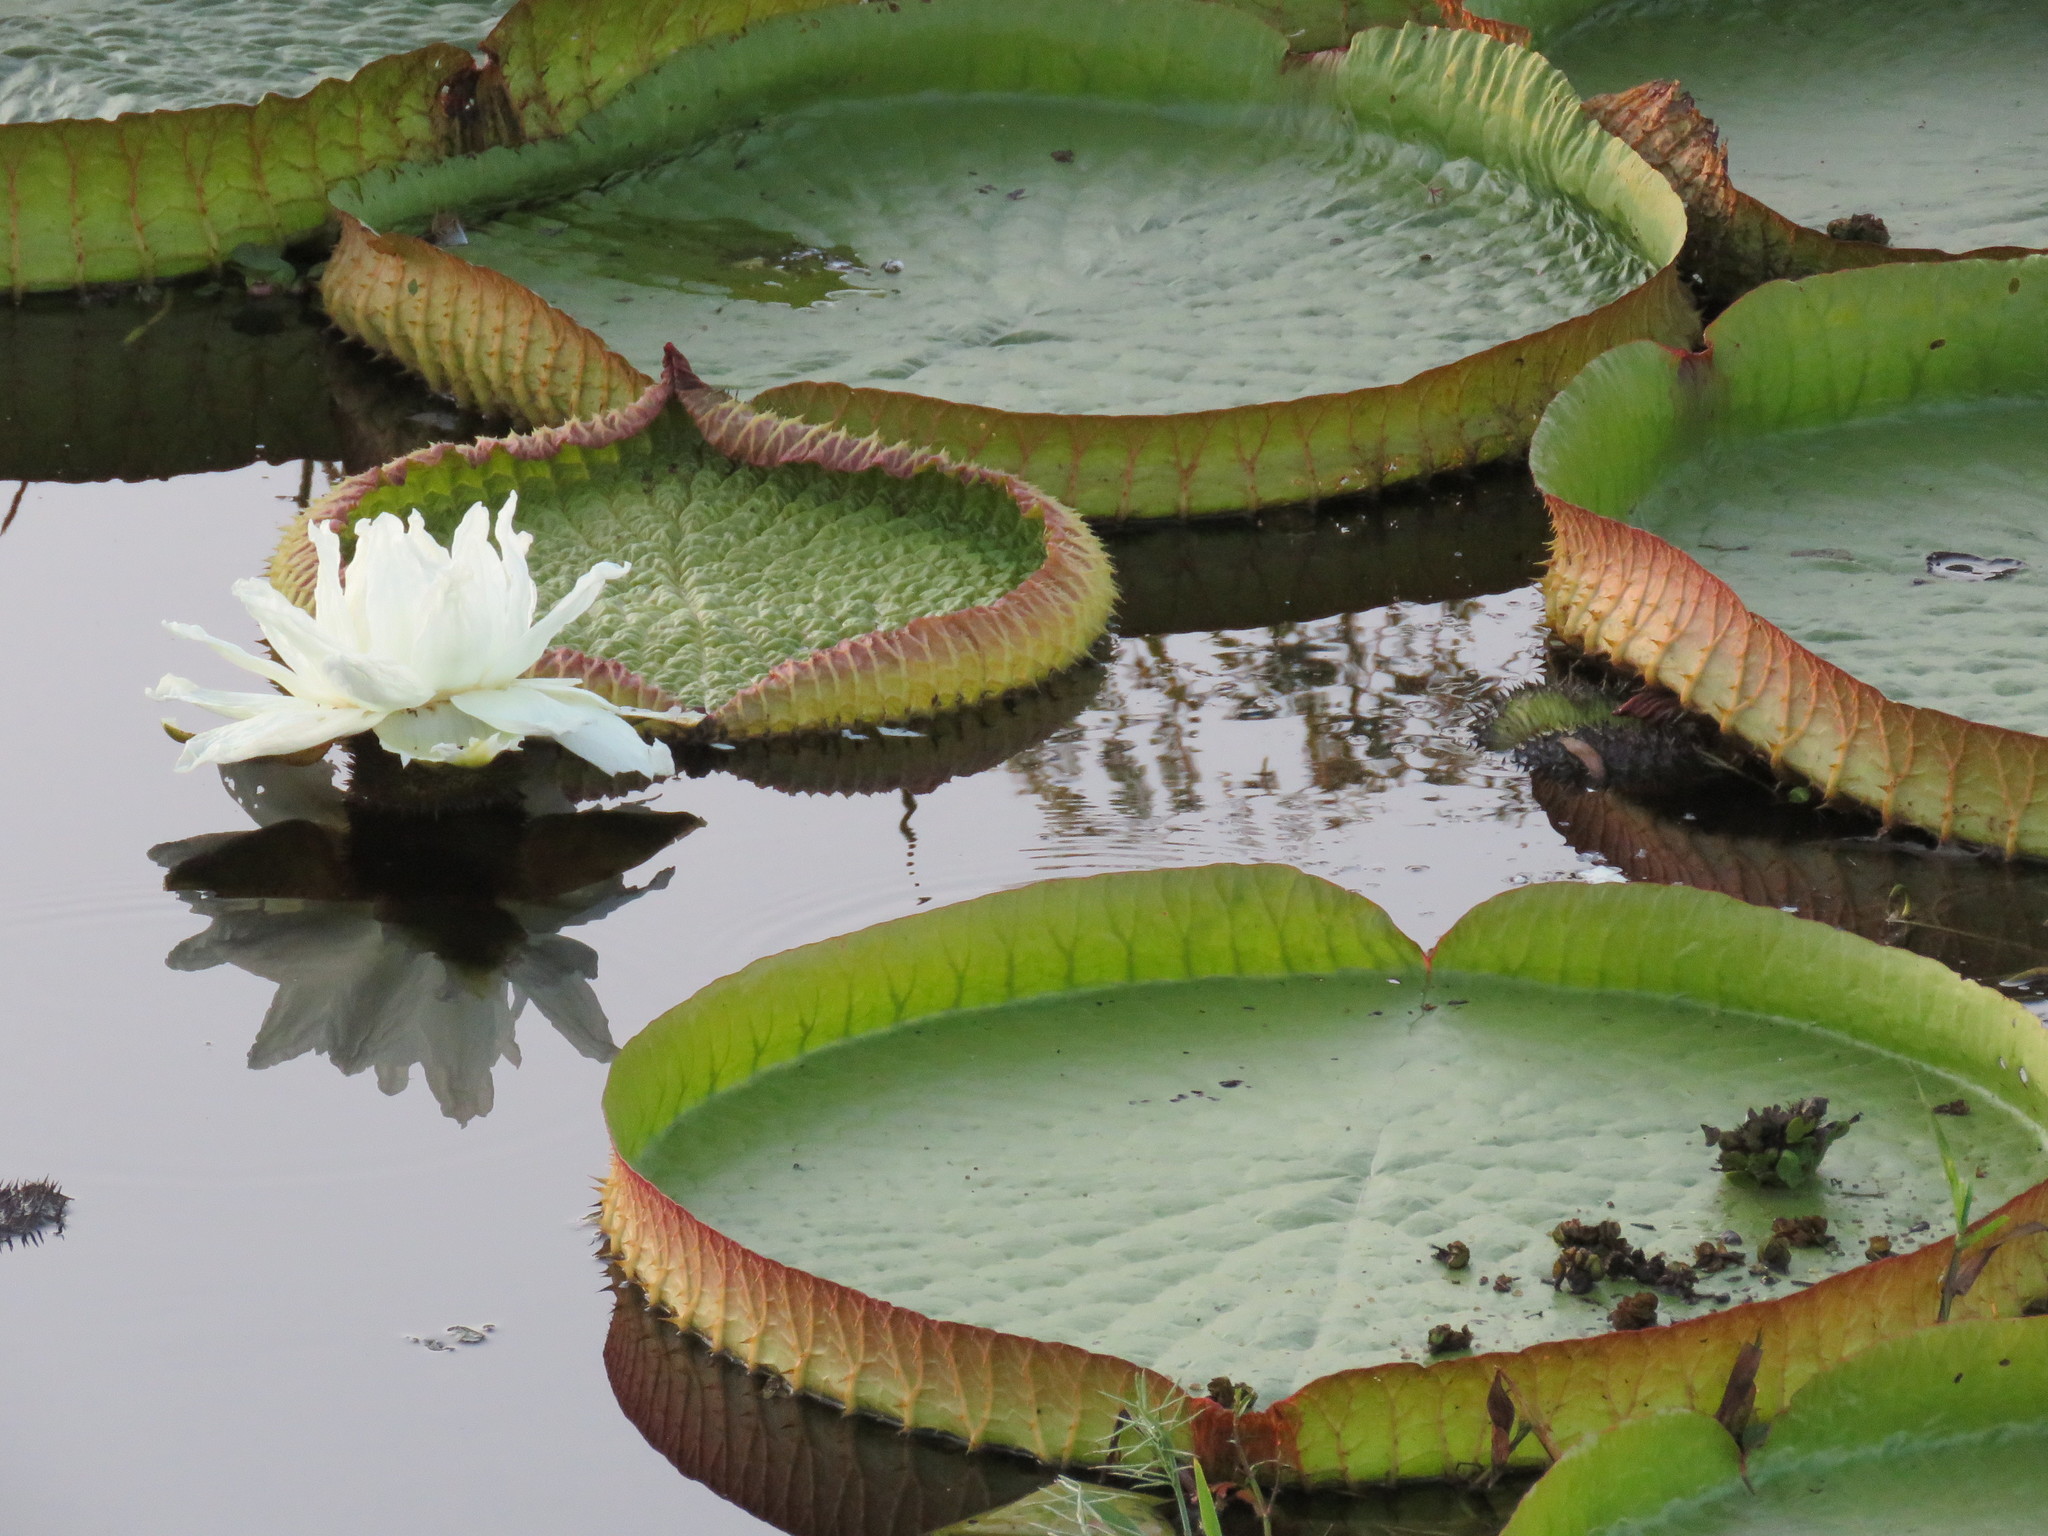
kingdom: Plantae
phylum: Tracheophyta
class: Magnoliopsida
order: Nymphaeales
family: Nymphaeaceae
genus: Victoria
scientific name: Victoria cruziana
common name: Santa cruz water-lily
